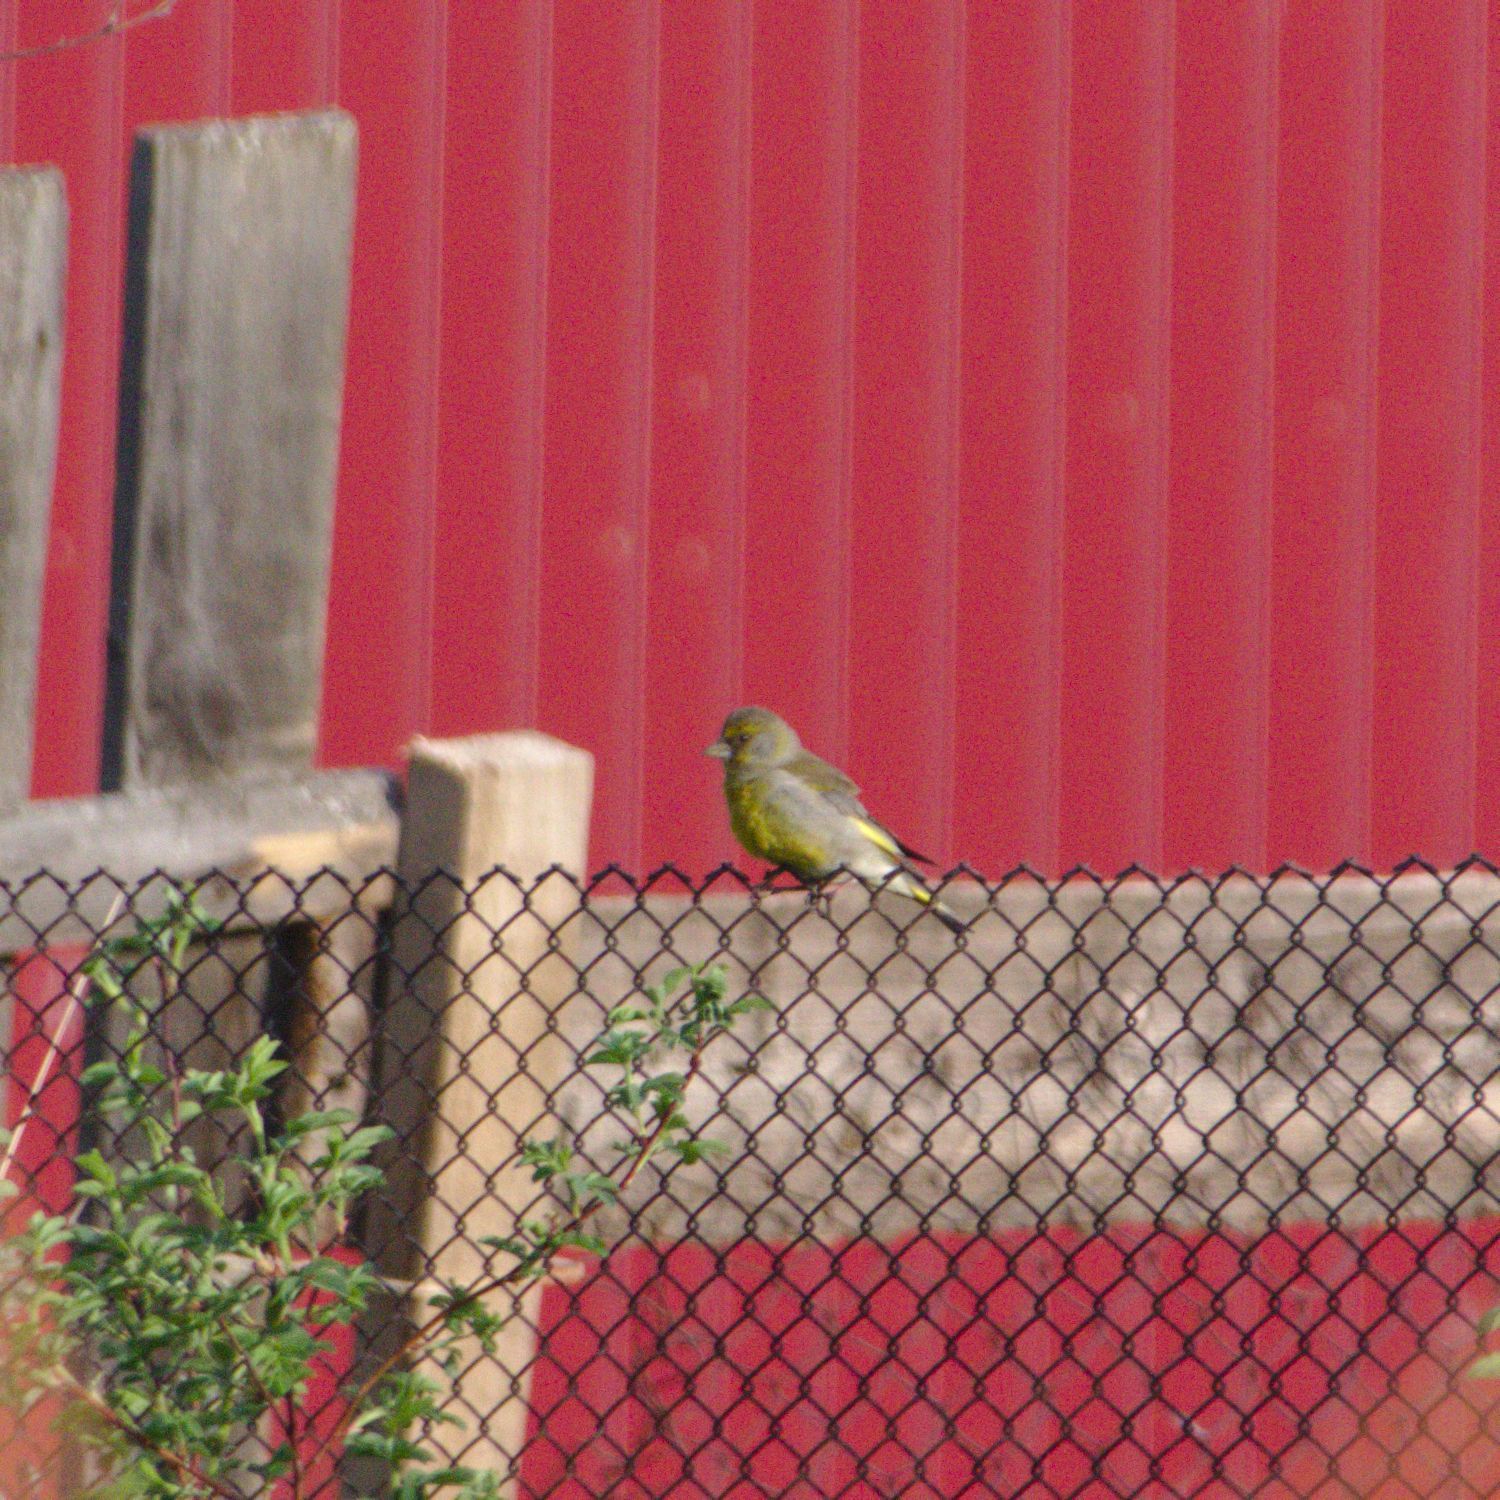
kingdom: Plantae
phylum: Tracheophyta
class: Liliopsida
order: Poales
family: Poaceae
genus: Chloris
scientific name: Chloris chloris
